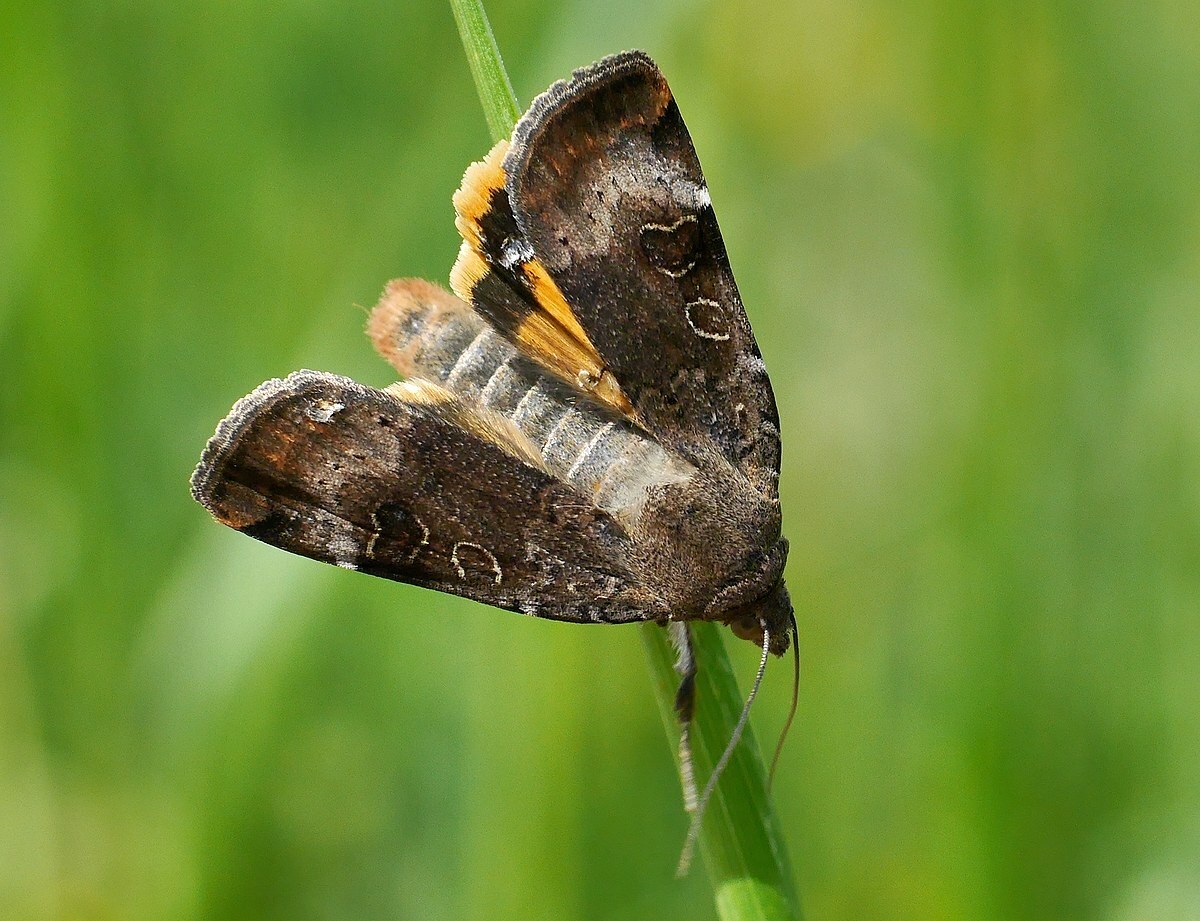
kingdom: Animalia
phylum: Arthropoda
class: Insecta
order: Lepidoptera
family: Noctuidae
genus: Noctua
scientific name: Noctua interposita
